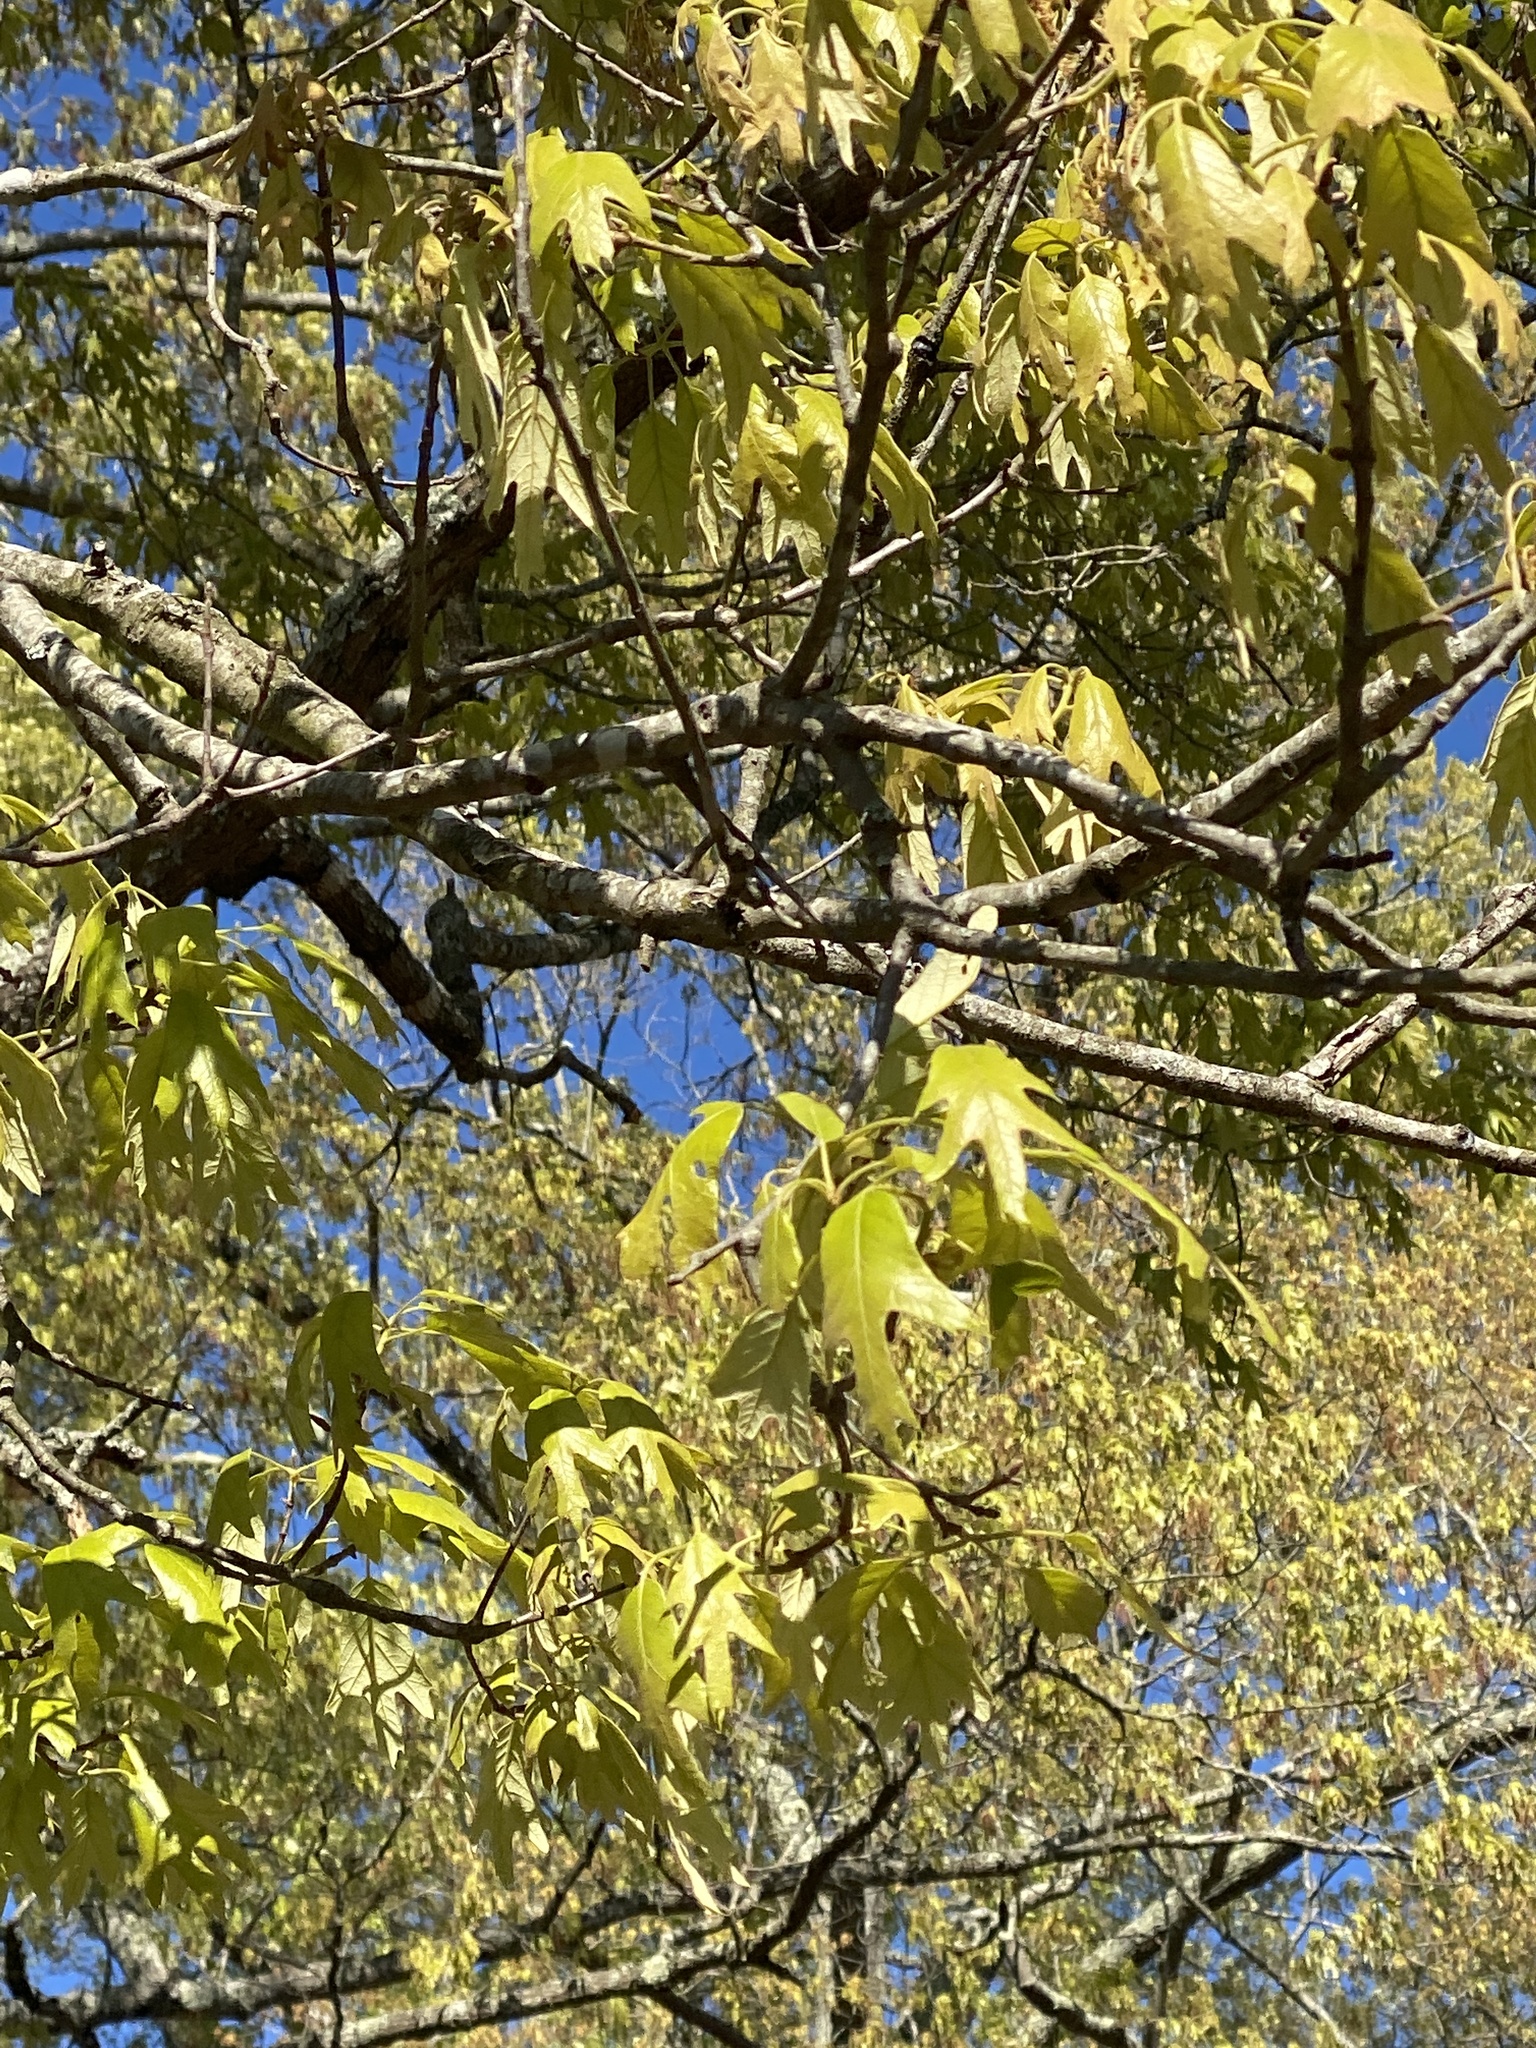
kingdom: Plantae
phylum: Tracheophyta
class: Magnoliopsida
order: Fagales
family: Fagaceae
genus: Quercus
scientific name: Quercus falcata
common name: Southern red oak
